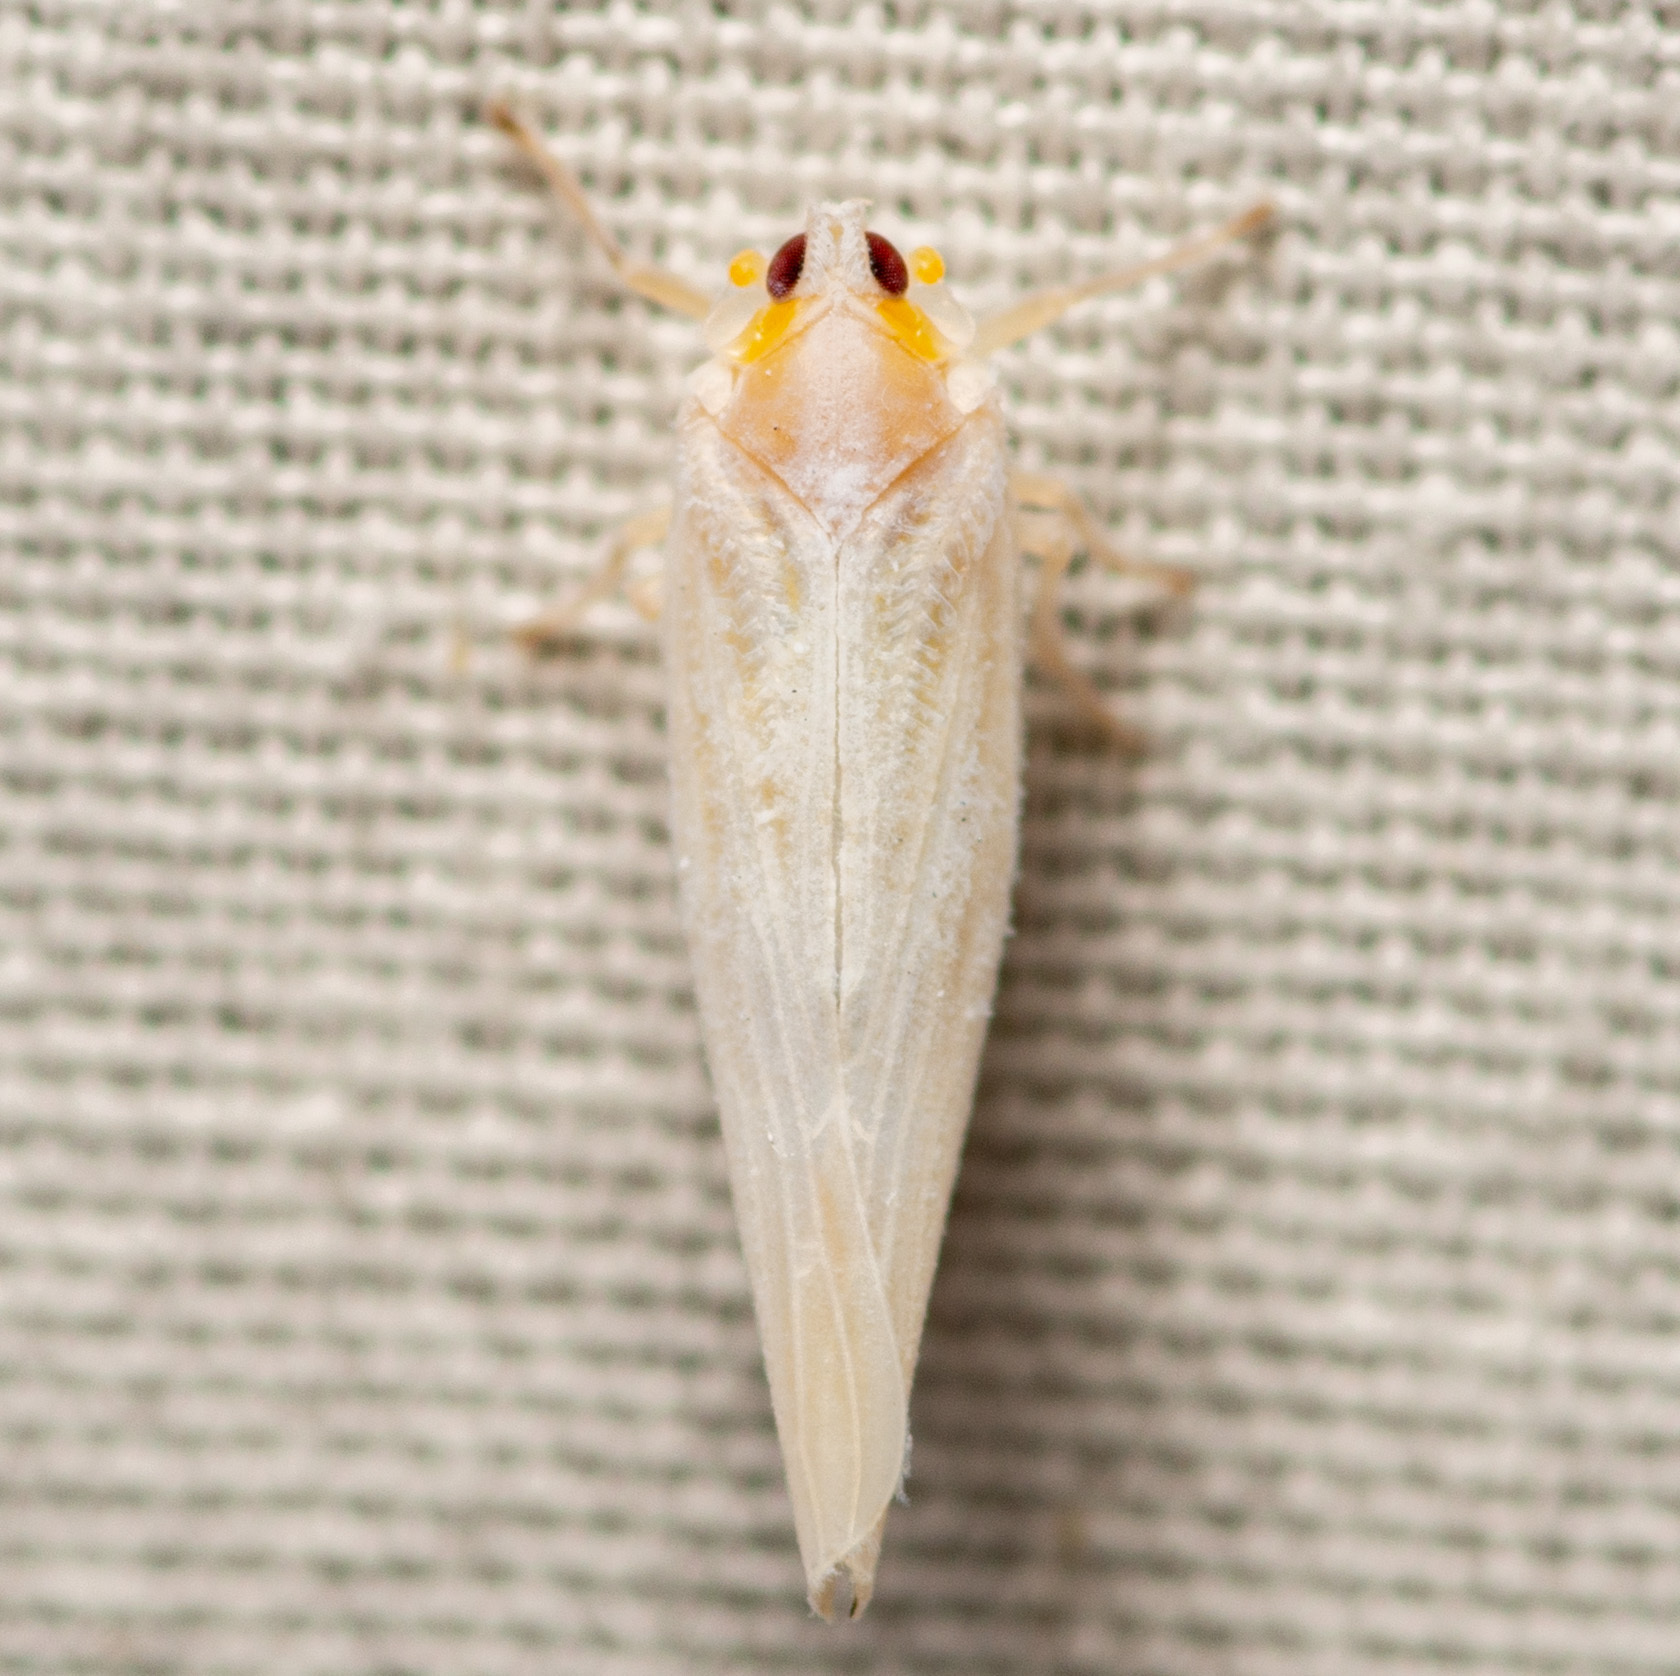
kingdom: Animalia
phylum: Arthropoda
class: Insecta
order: Hemiptera
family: Derbidae
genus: Neocenchrea
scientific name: Neocenchrea heidemanni
